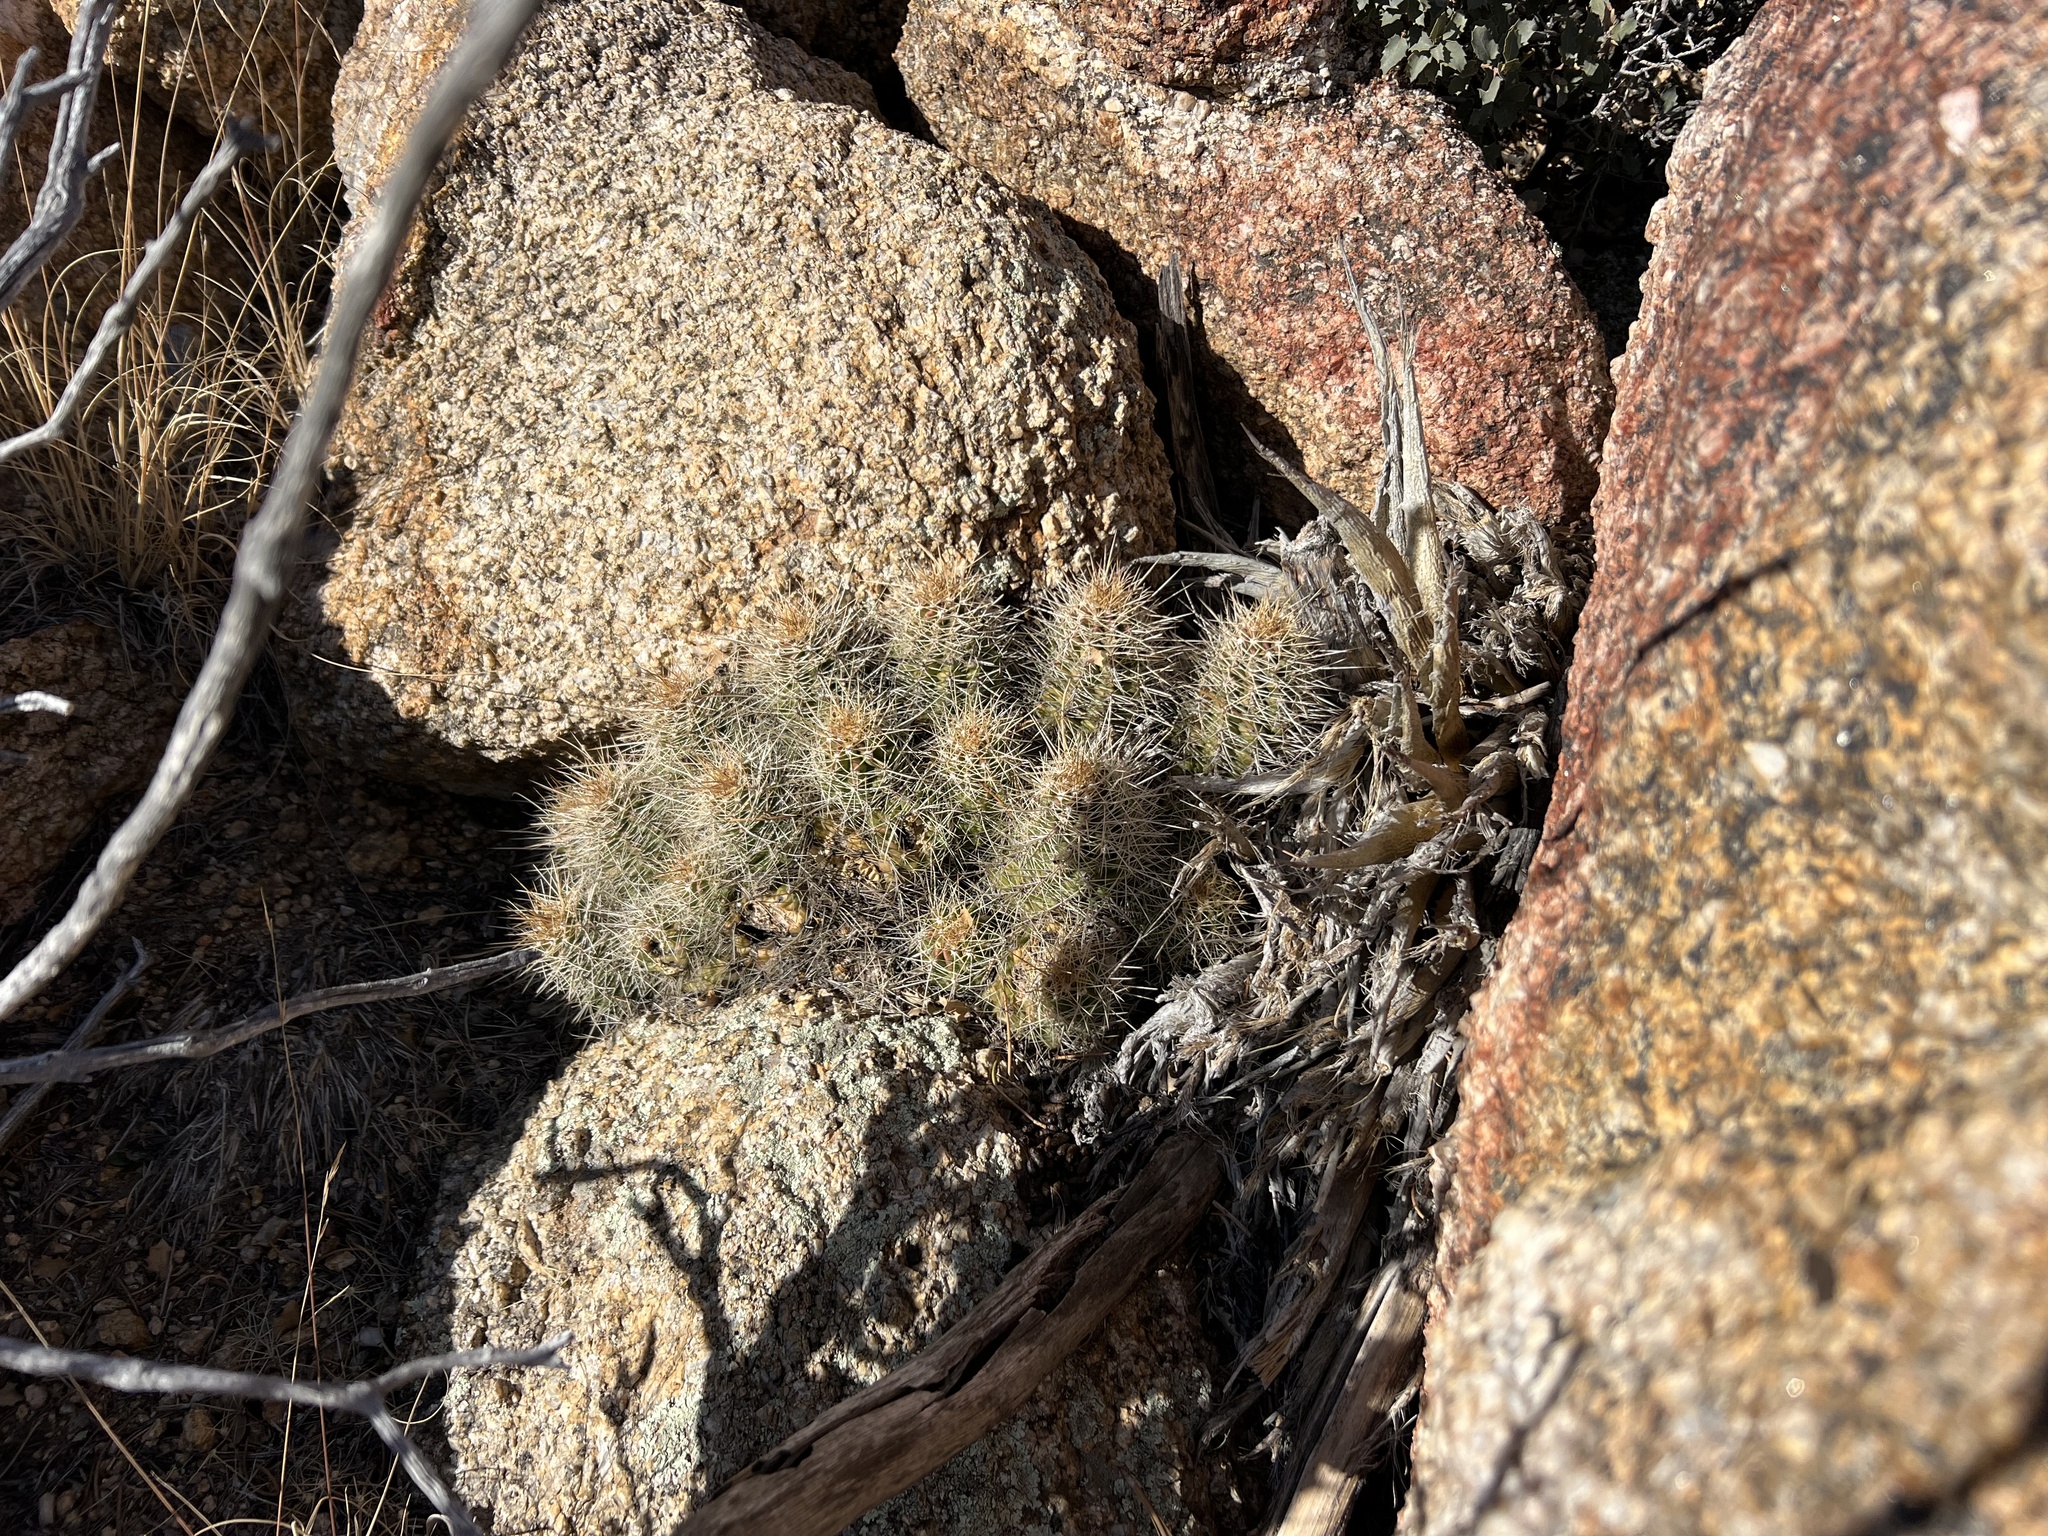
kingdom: Plantae
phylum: Tracheophyta
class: Magnoliopsida
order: Caryophyllales
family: Cactaceae
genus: Echinocereus
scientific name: Echinocereus bakeri
